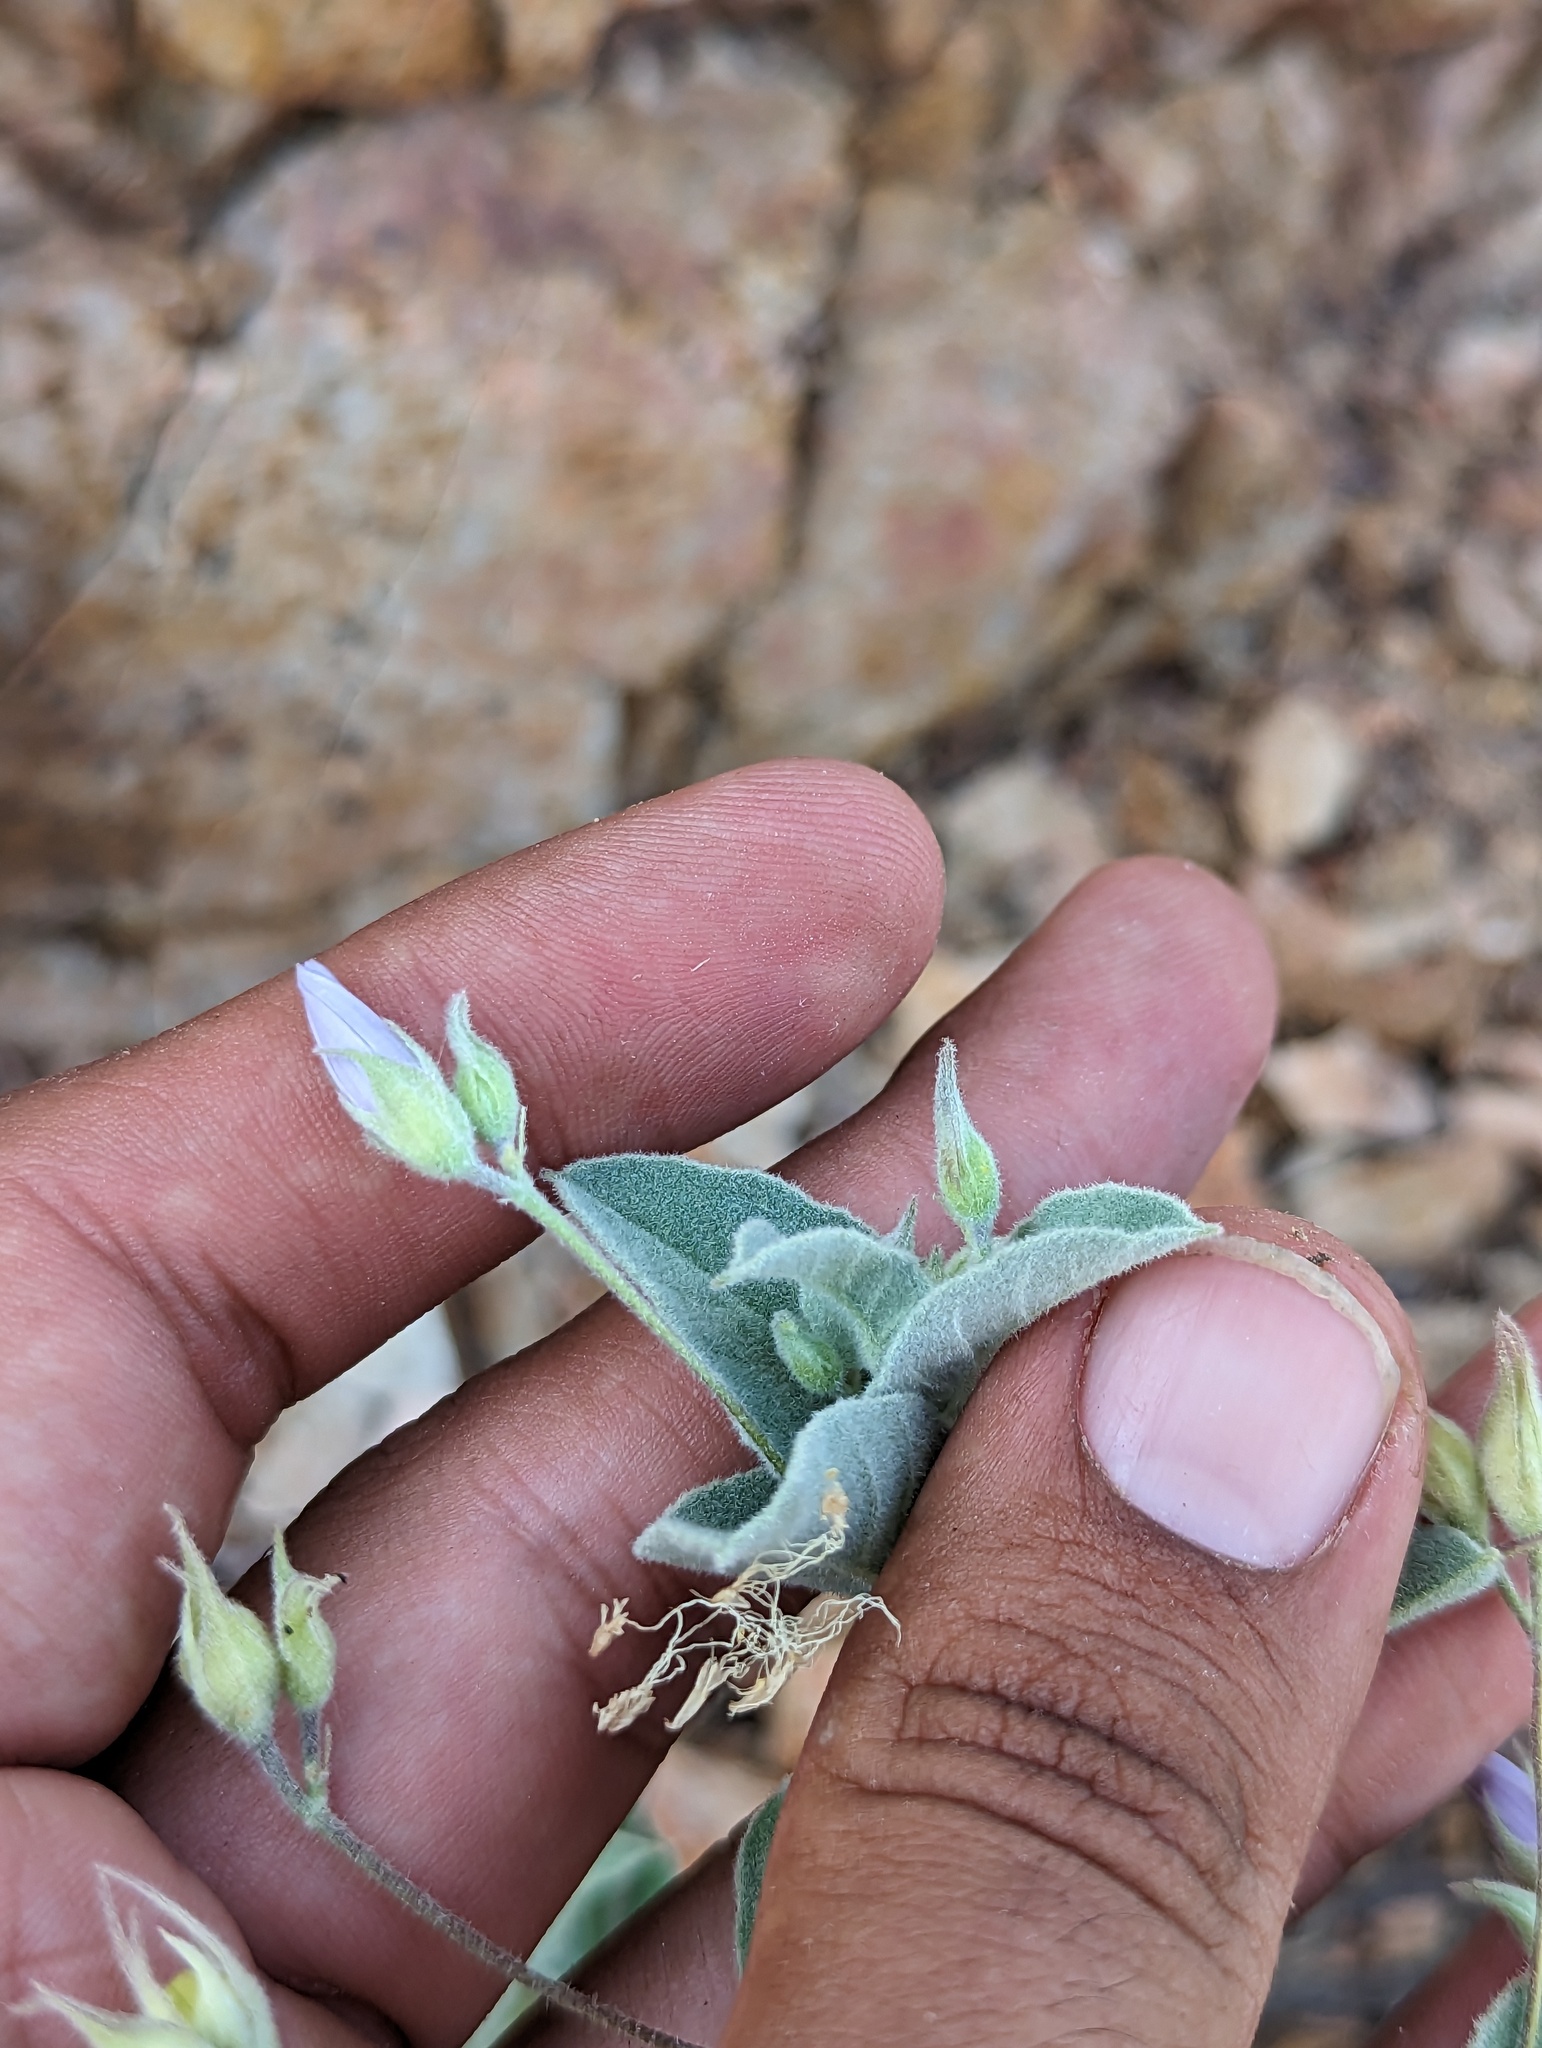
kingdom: Plantae
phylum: Tracheophyta
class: Magnoliopsida
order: Solanales
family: Convolvulaceae
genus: Jacquemontia
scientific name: Jacquemontia abutiloides
